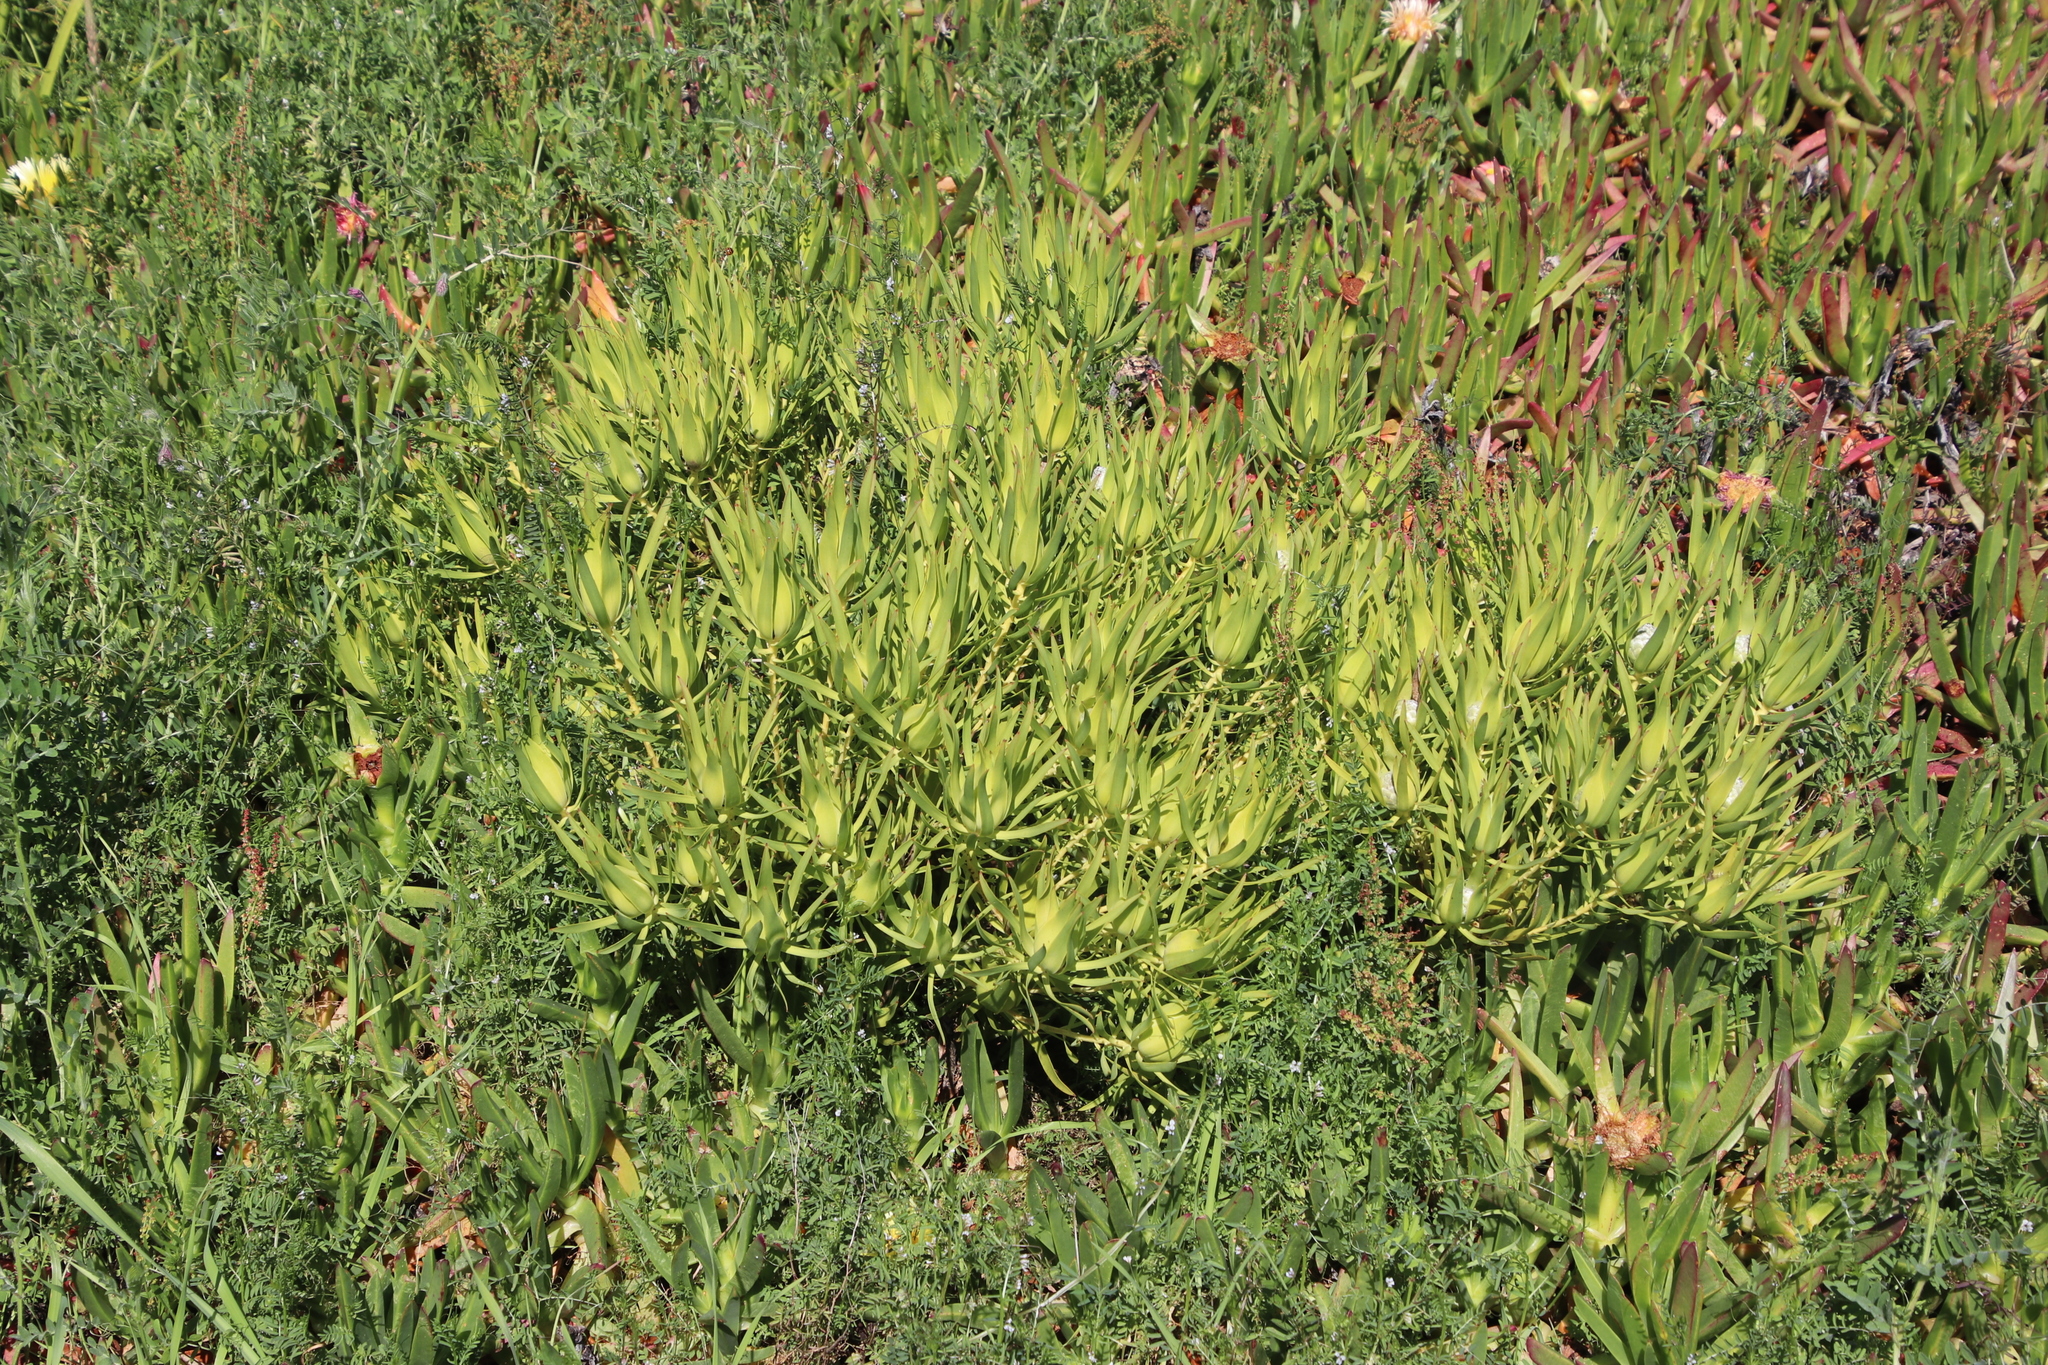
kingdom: Plantae
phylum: Tracheophyta
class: Magnoliopsida
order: Proteales
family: Proteaceae
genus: Leucadendron
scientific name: Leucadendron salignum
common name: Common sunshine conebush
